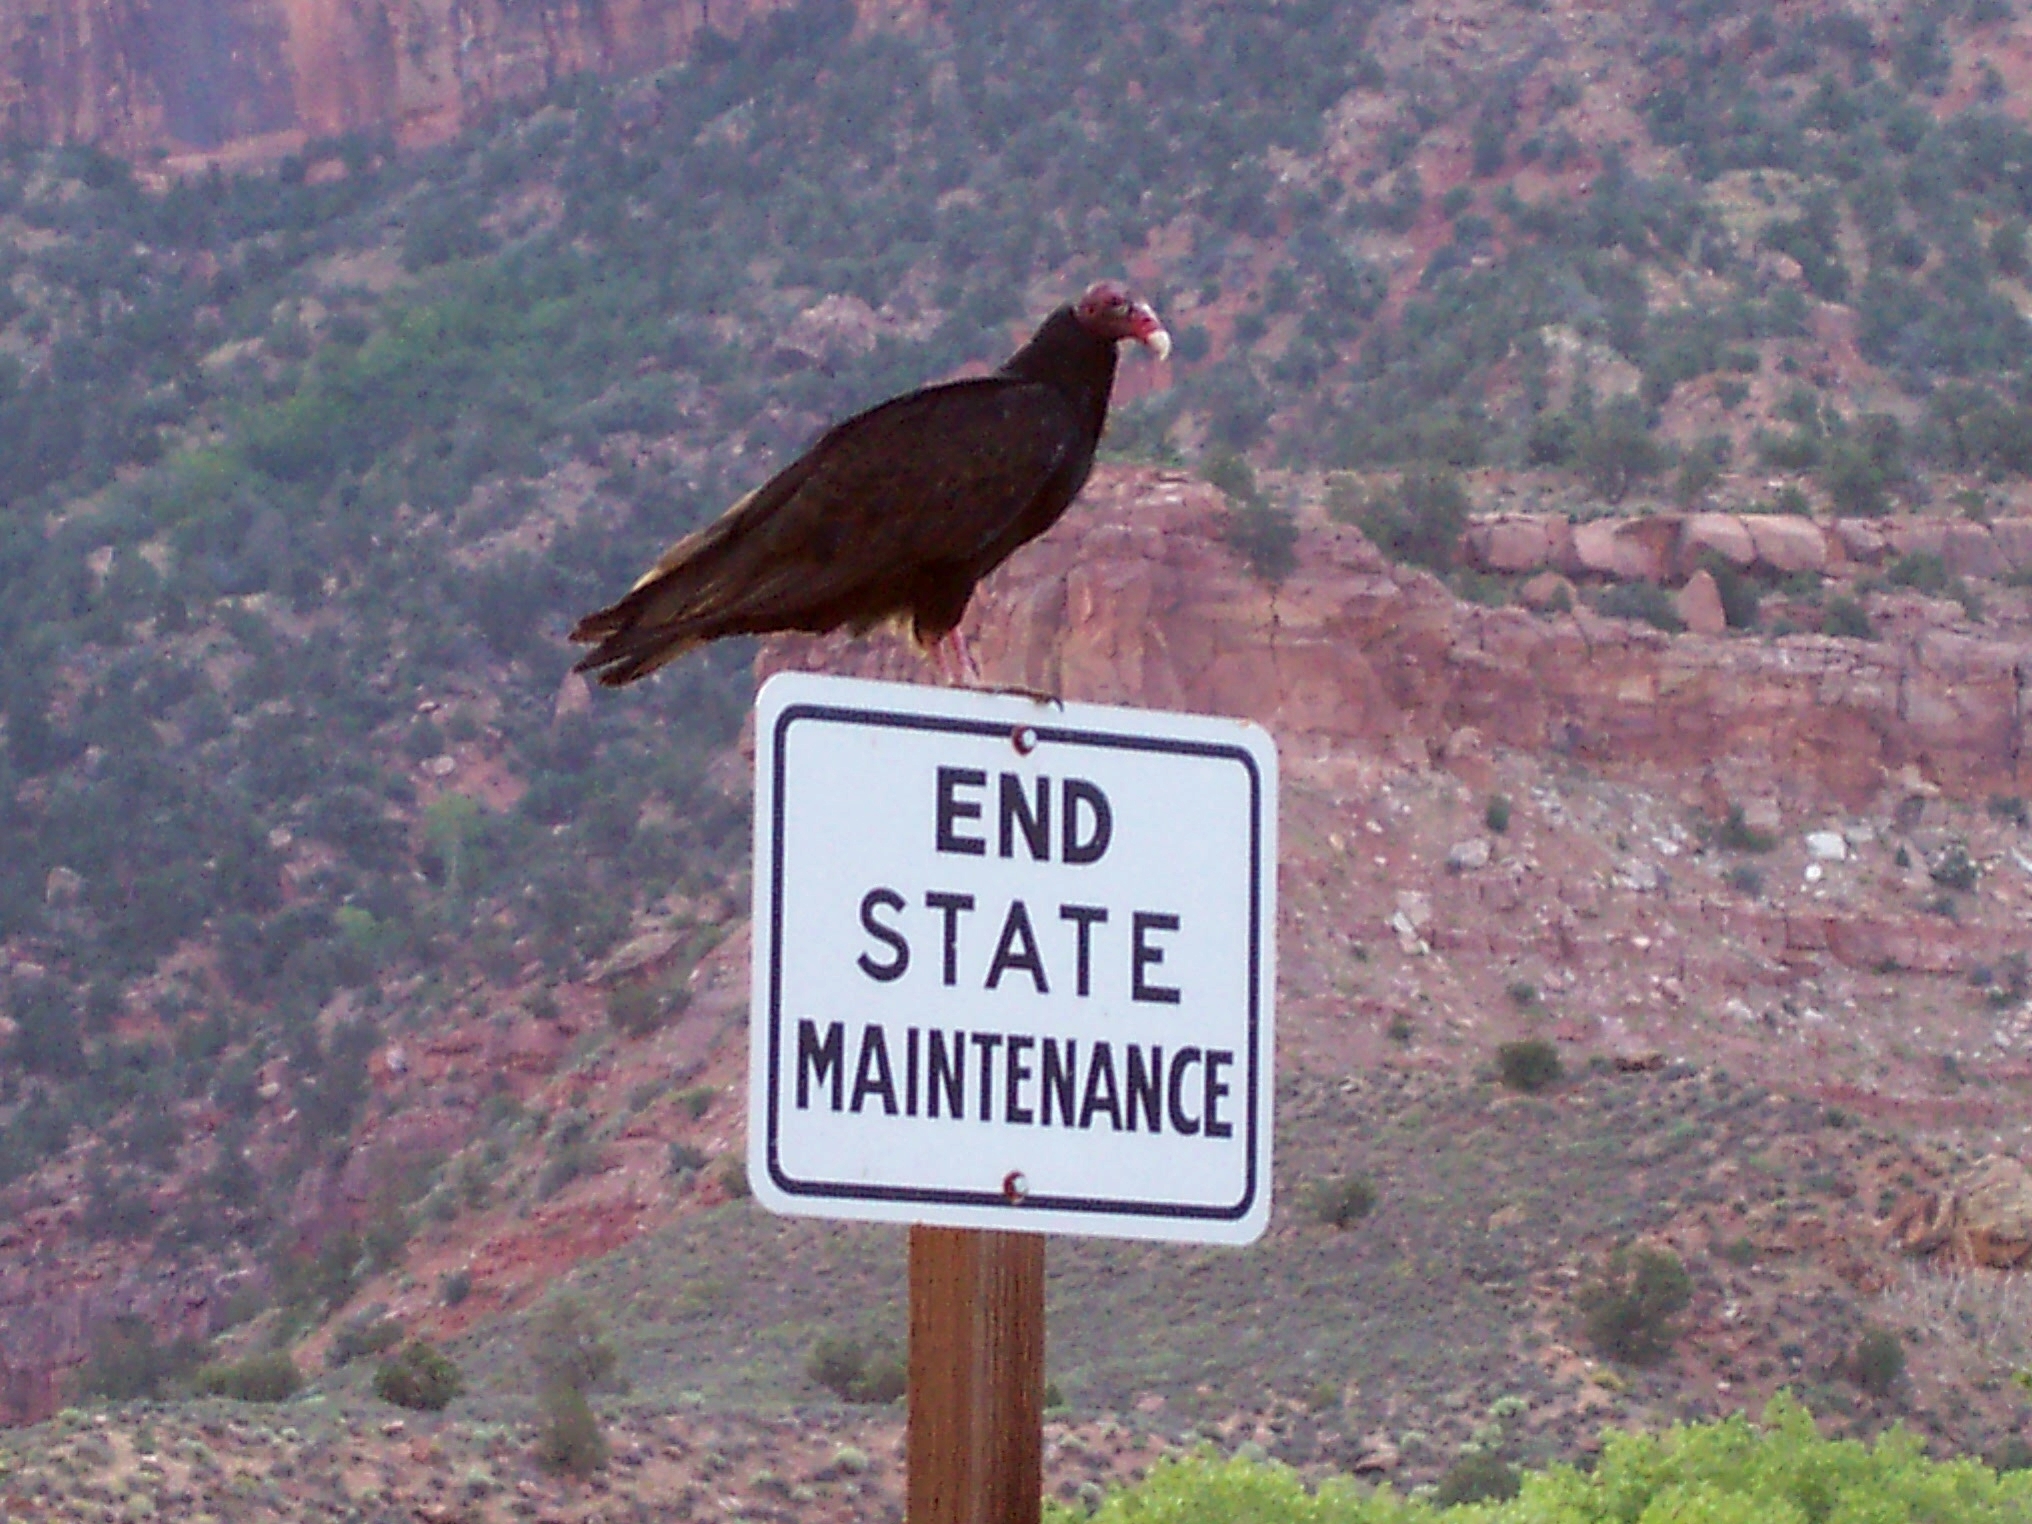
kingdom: Animalia
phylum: Chordata
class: Aves
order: Accipitriformes
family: Cathartidae
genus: Cathartes
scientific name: Cathartes aura
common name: Turkey vulture
